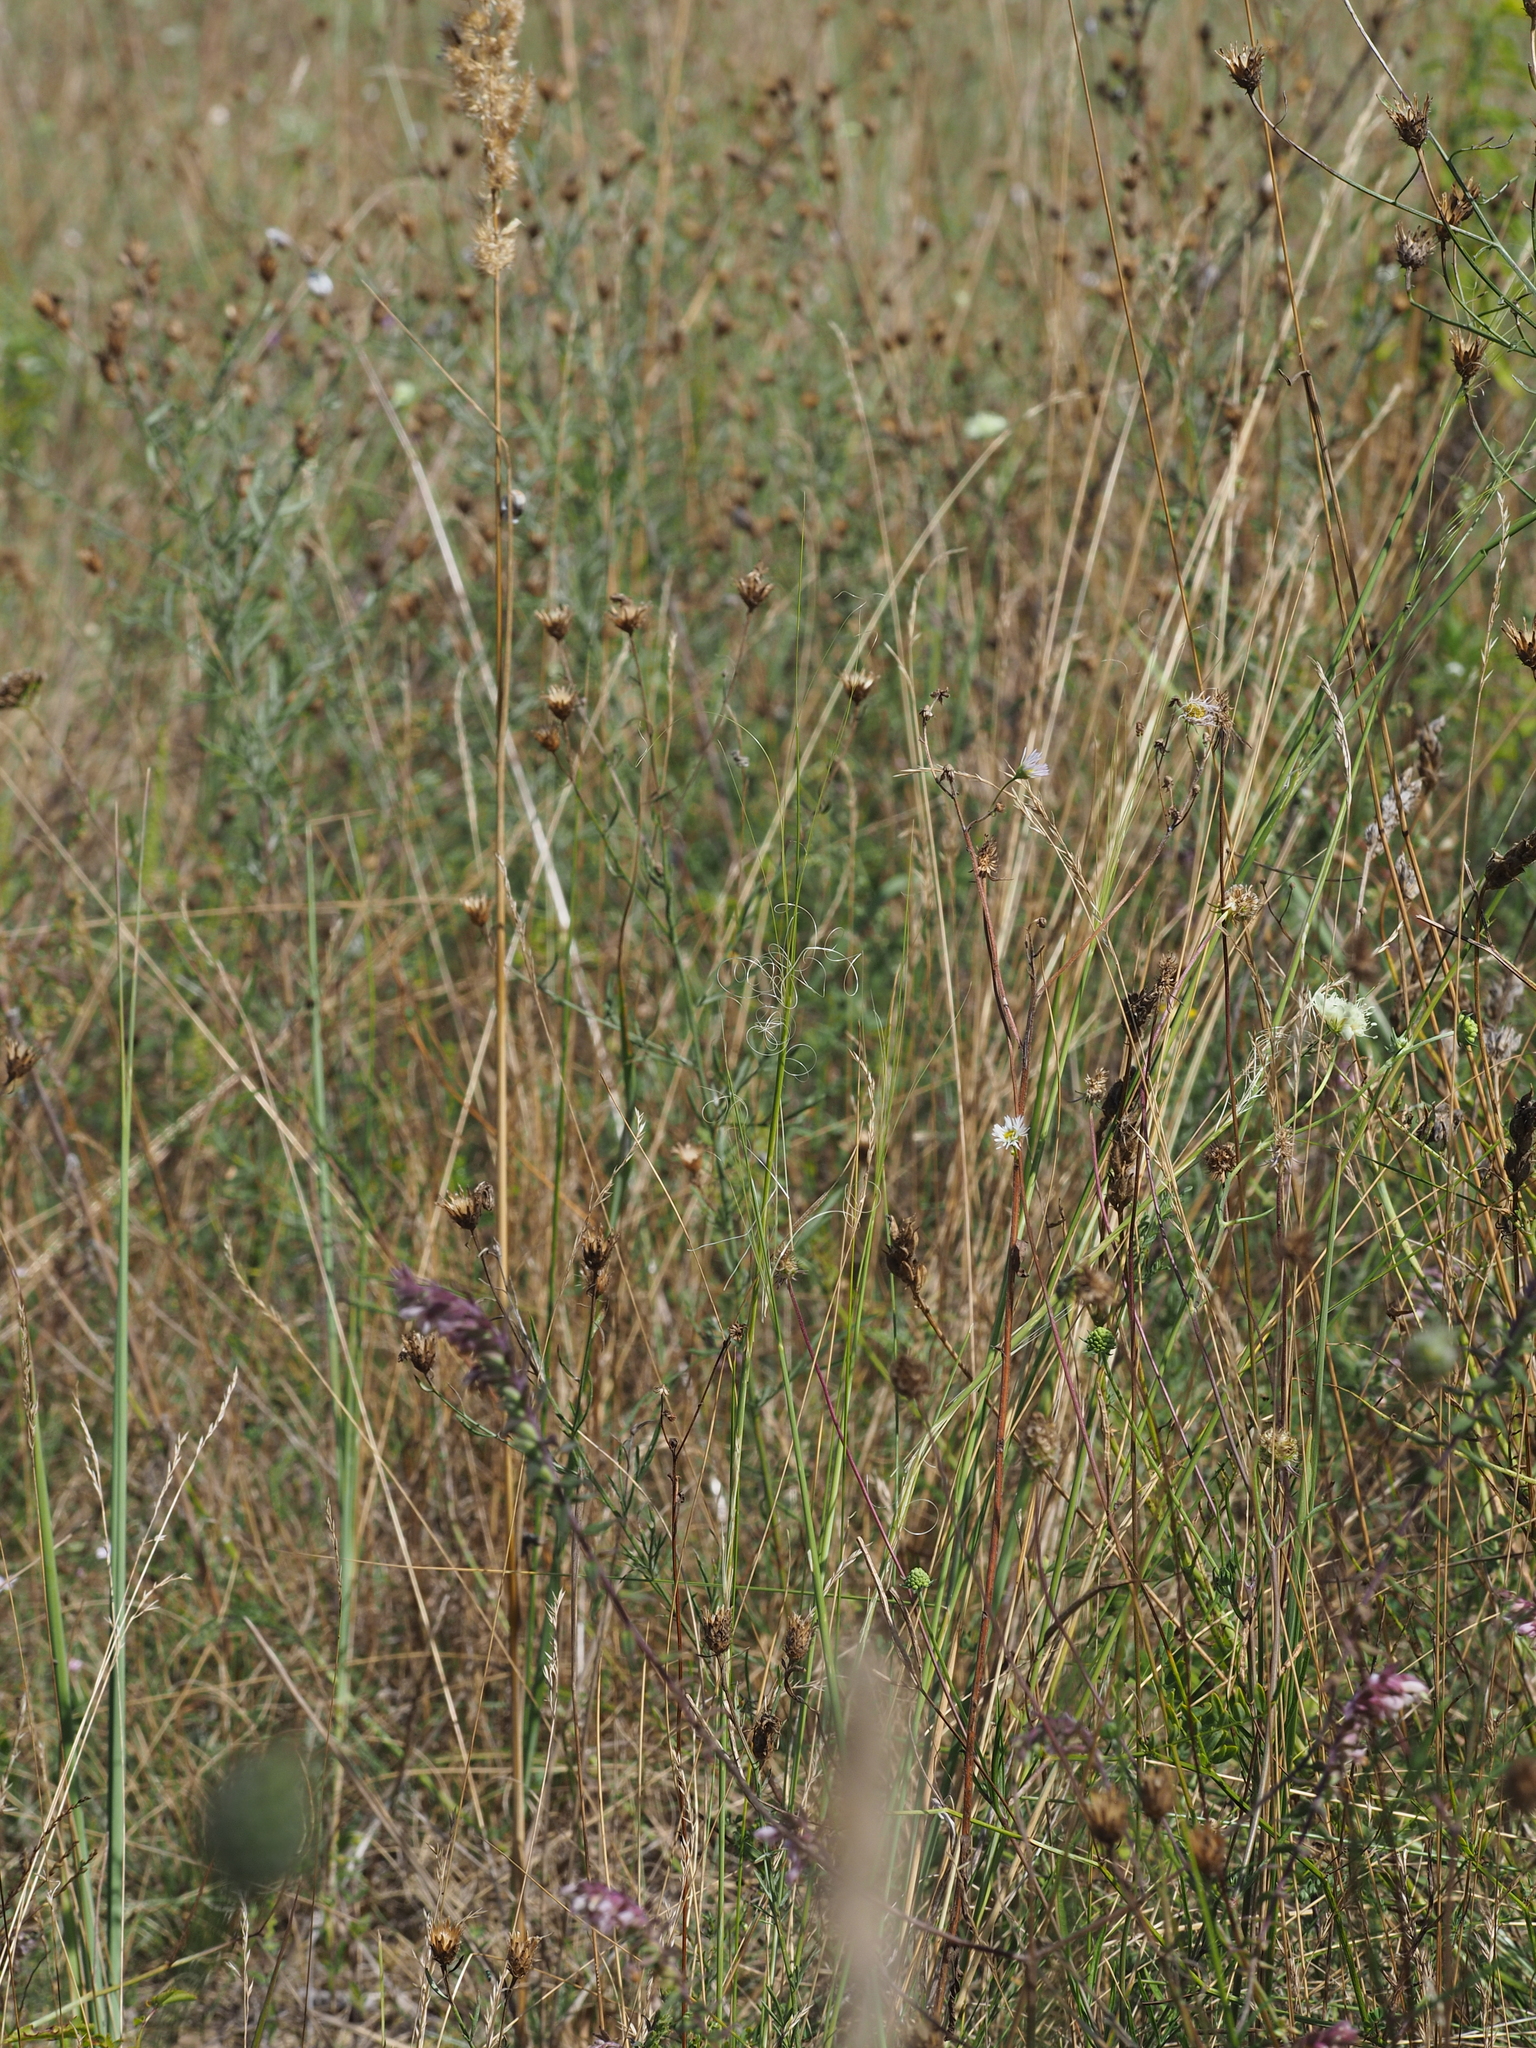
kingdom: Plantae
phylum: Tracheophyta
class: Liliopsida
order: Poales
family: Poaceae
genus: Stipa
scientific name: Stipa capillata
